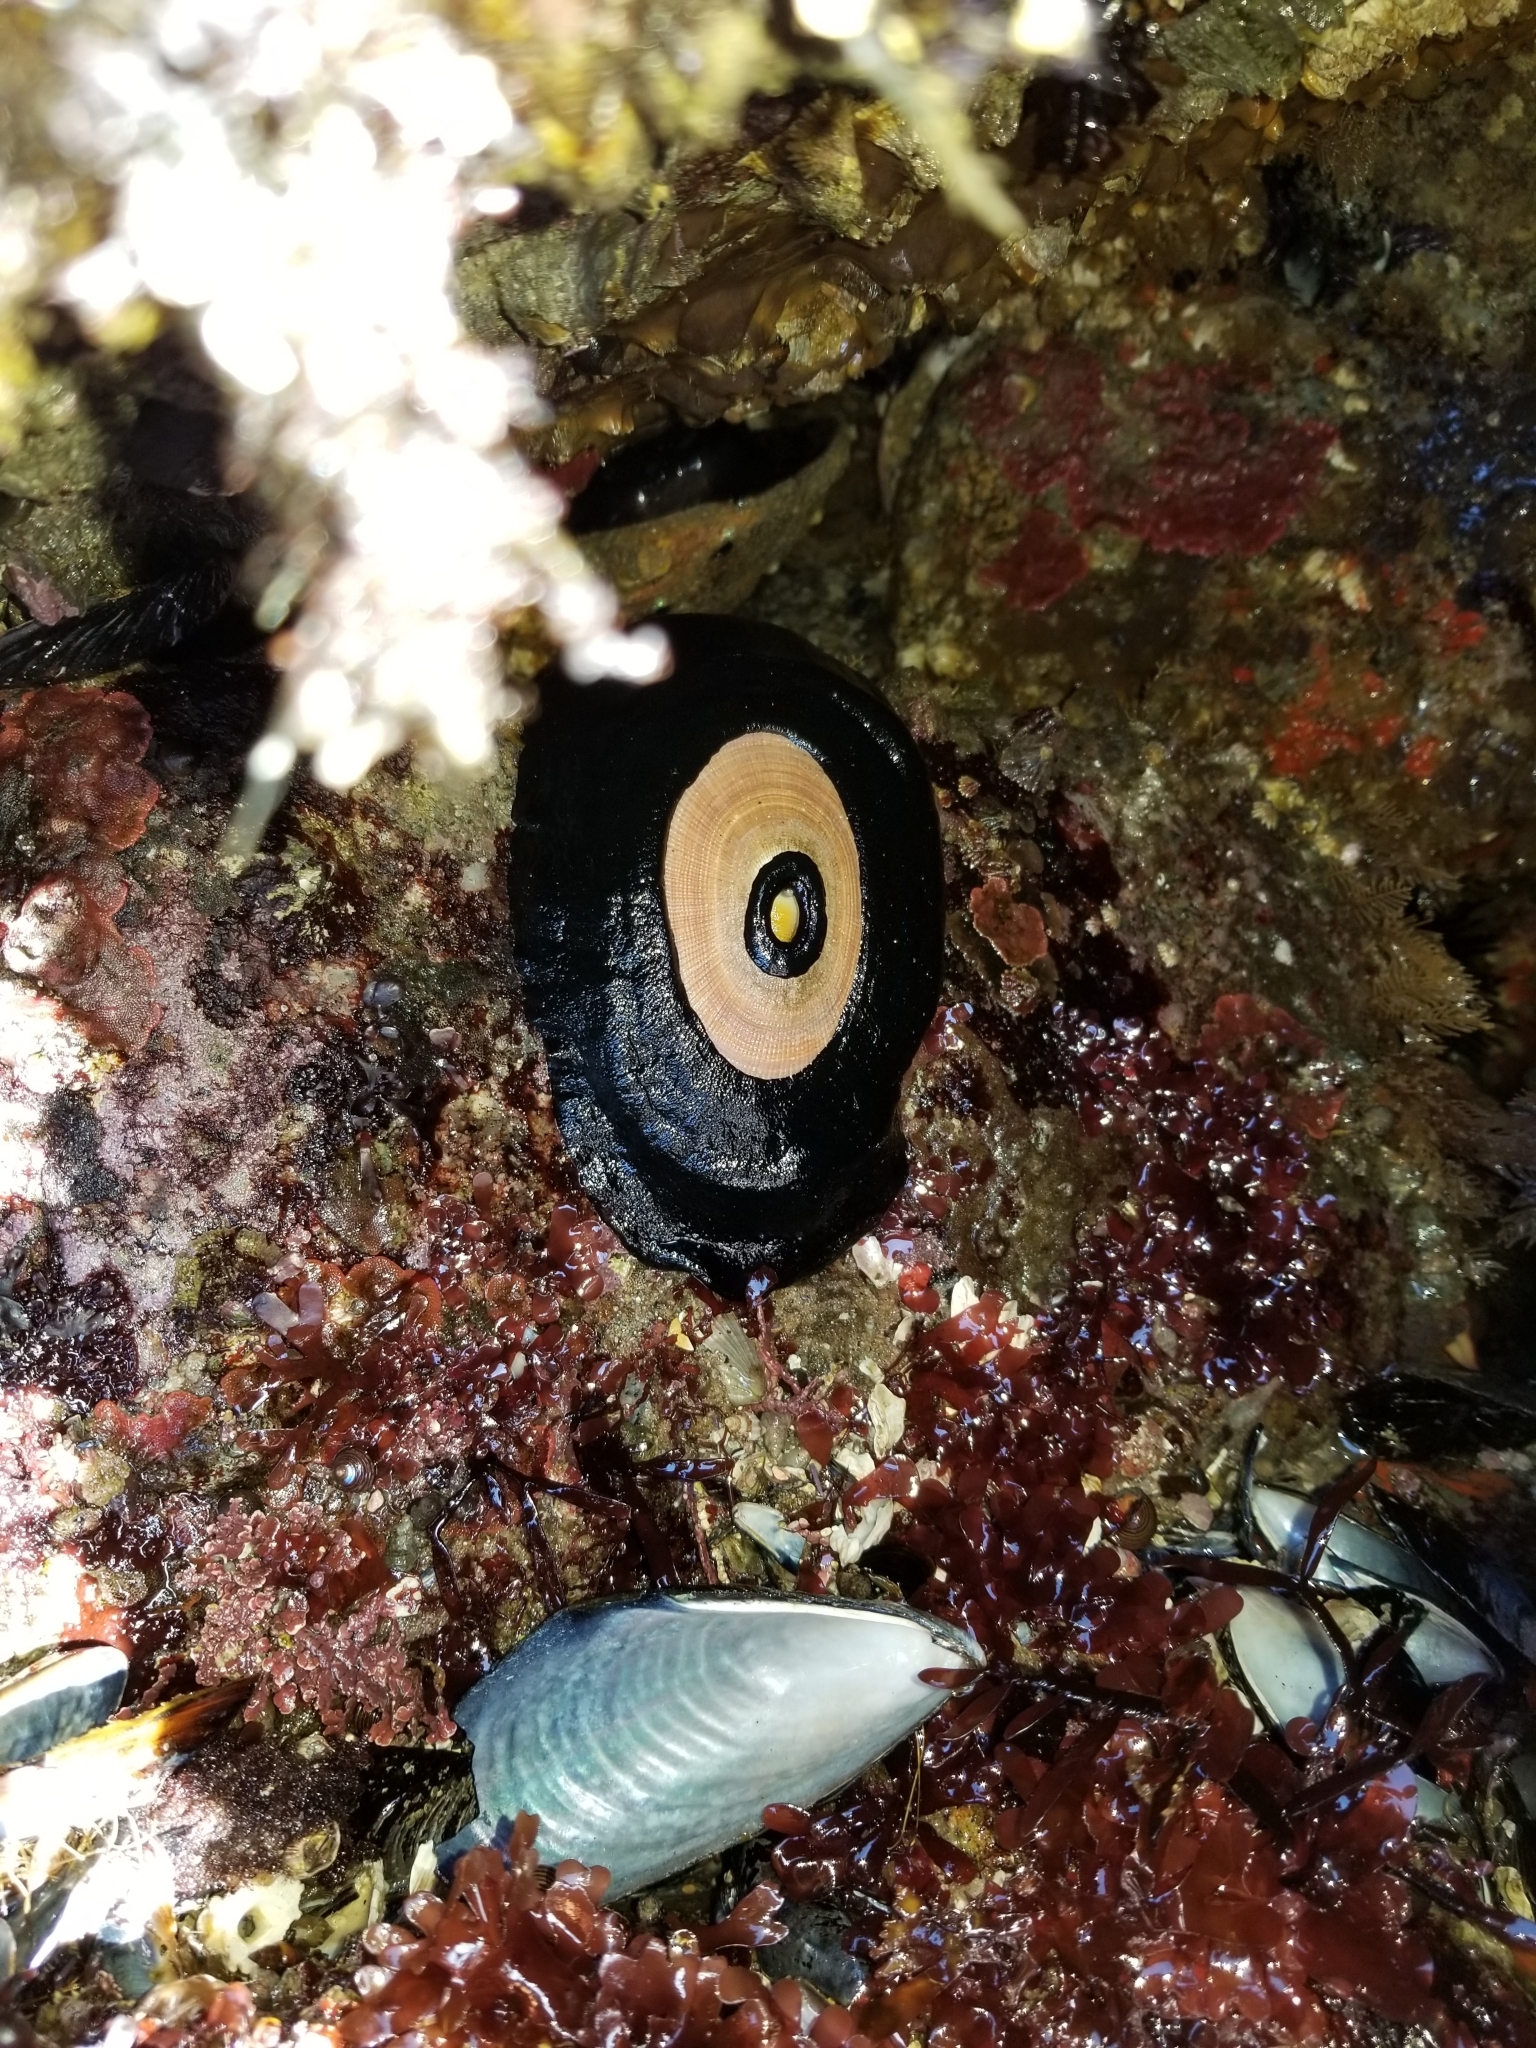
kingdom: Animalia
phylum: Mollusca
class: Gastropoda
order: Lepetellida
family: Fissurellidae
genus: Megathura
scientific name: Megathura crenulata
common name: Giant keyhole limpet
